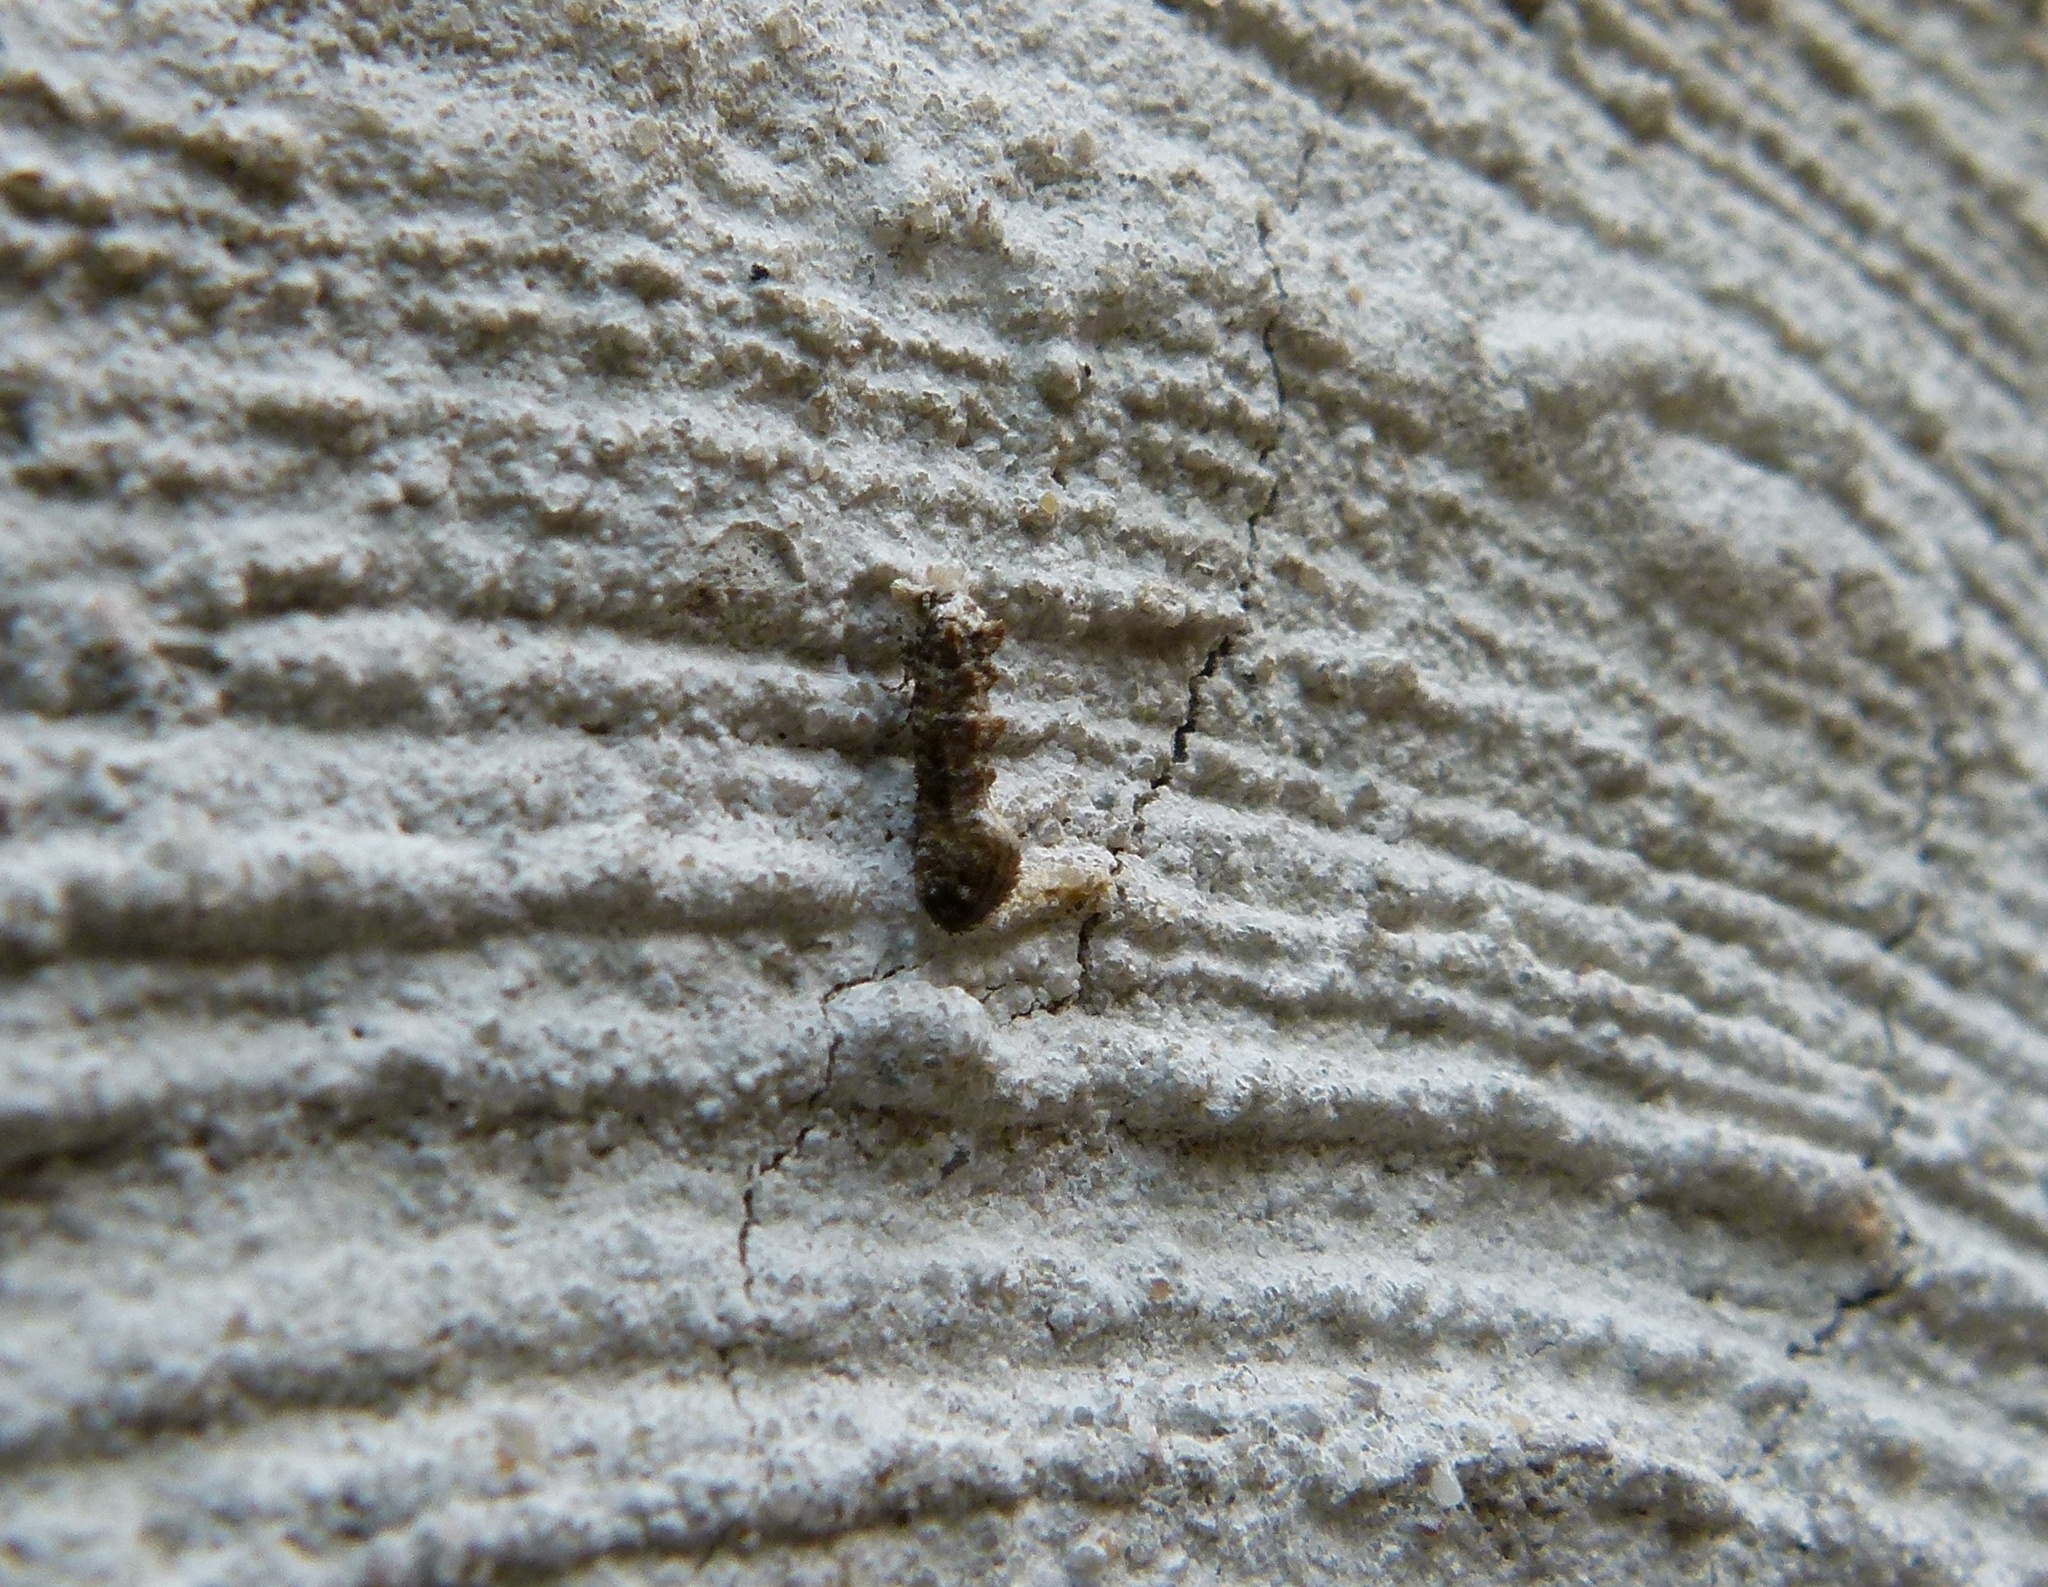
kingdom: Animalia
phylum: Arthropoda
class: Insecta
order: Lepidoptera
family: Tineidae
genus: Xylesthia
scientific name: Xylesthia pruniramiella
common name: Clemens' bark moth
